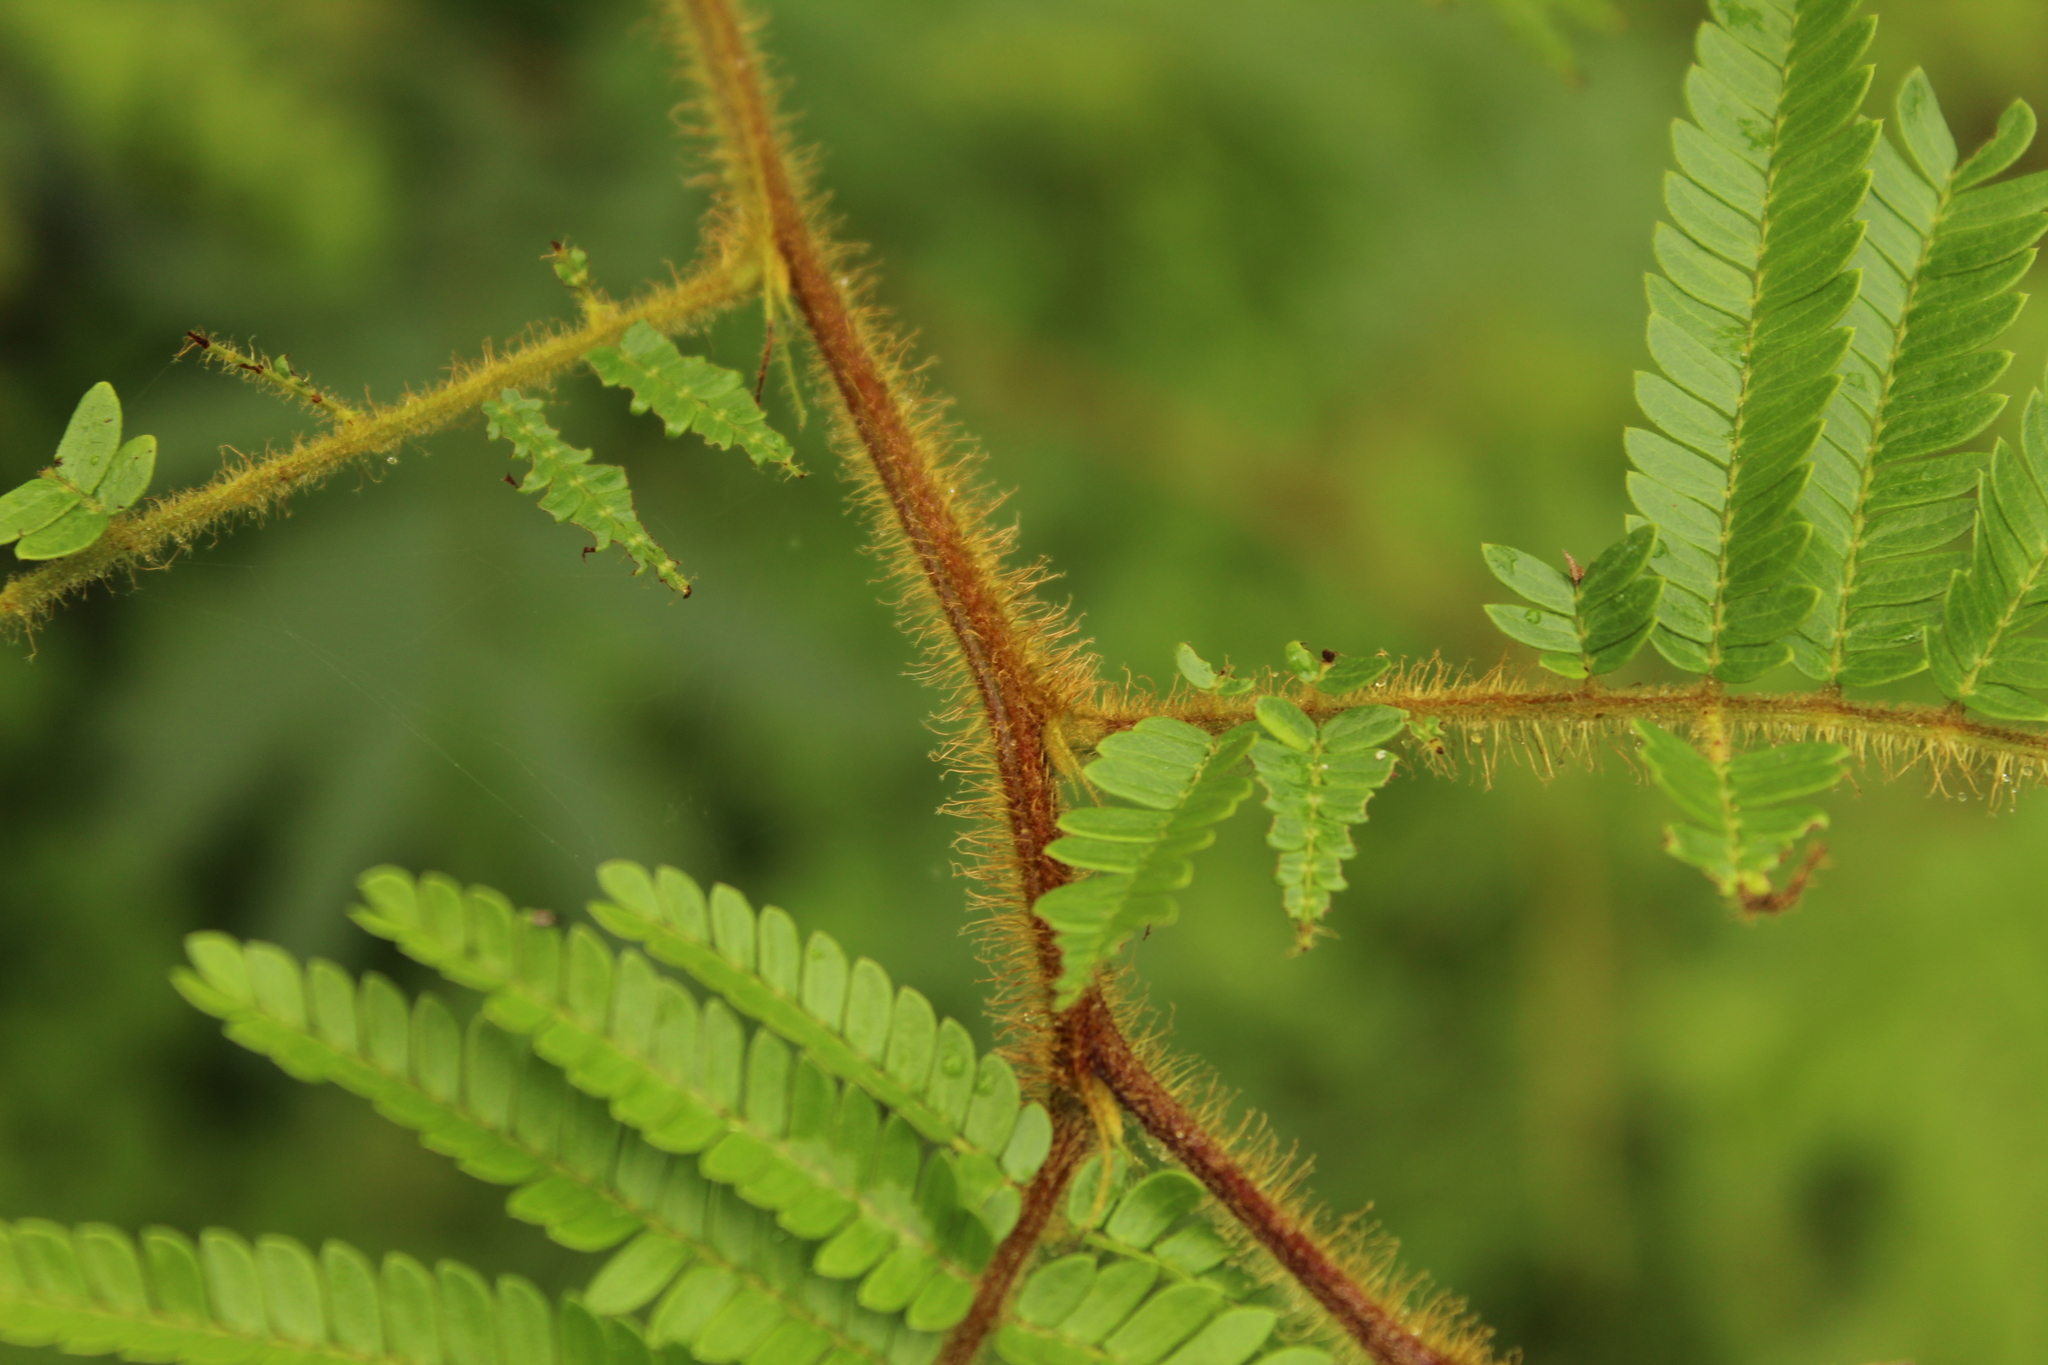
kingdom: Plantae
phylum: Tracheophyta
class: Magnoliopsida
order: Fabales
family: Fabaceae
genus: Mimosa
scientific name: Mimosa trianae
